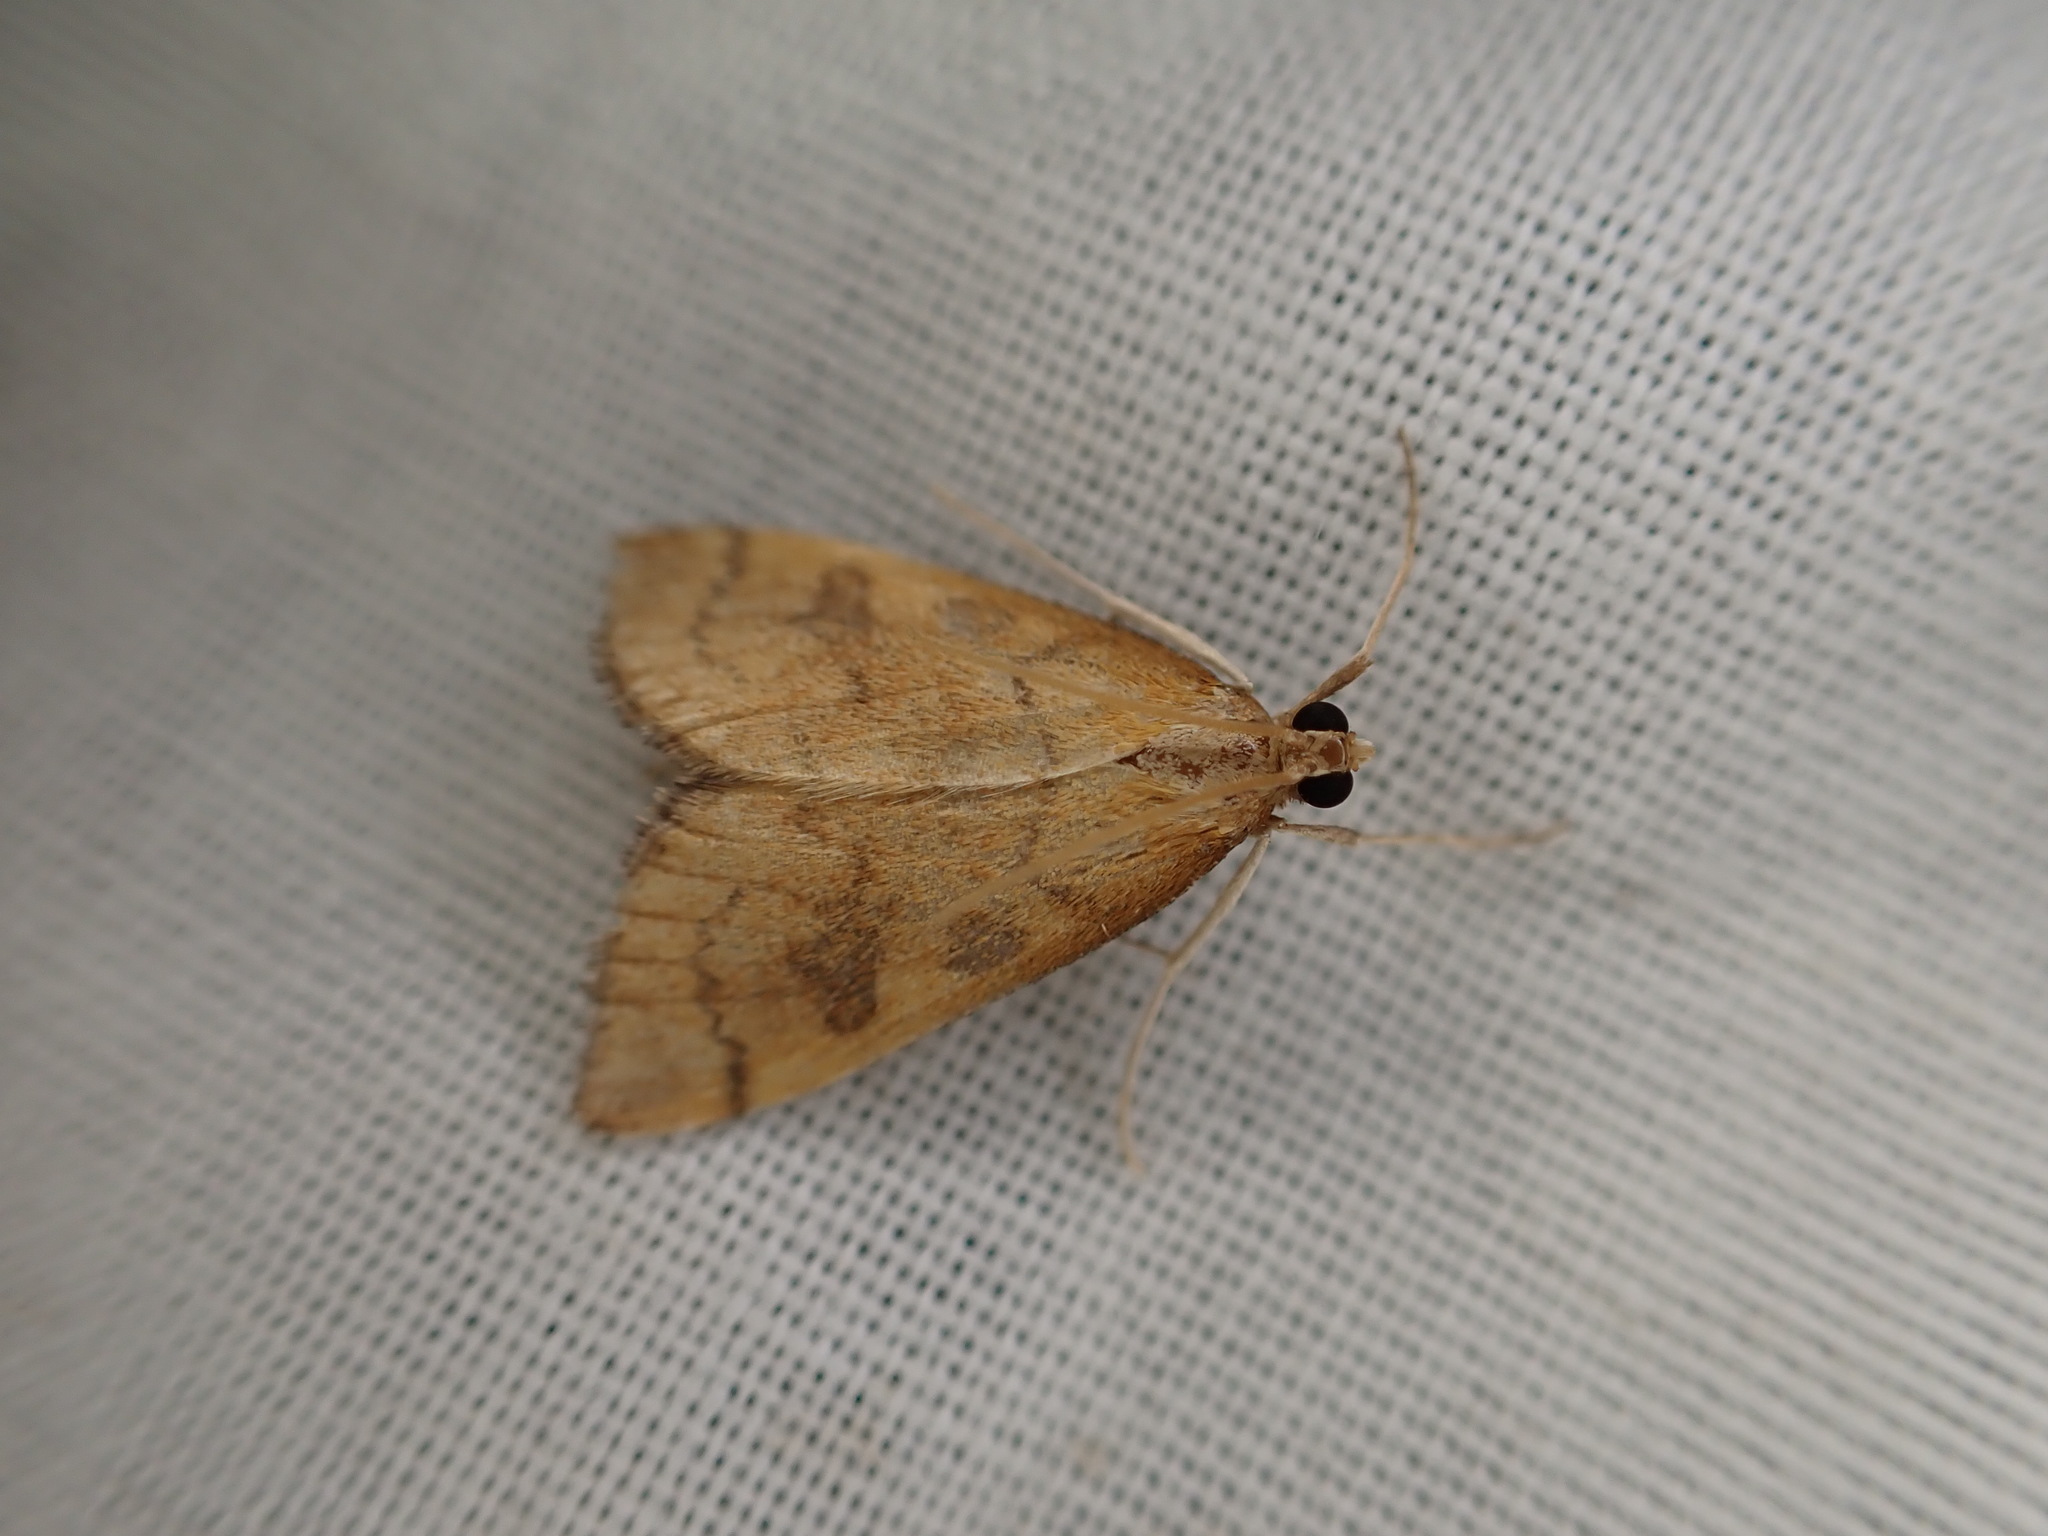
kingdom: Animalia
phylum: Arthropoda
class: Insecta
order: Lepidoptera
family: Crambidae
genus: Udea
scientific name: Udea Mnesictena flavidalis
